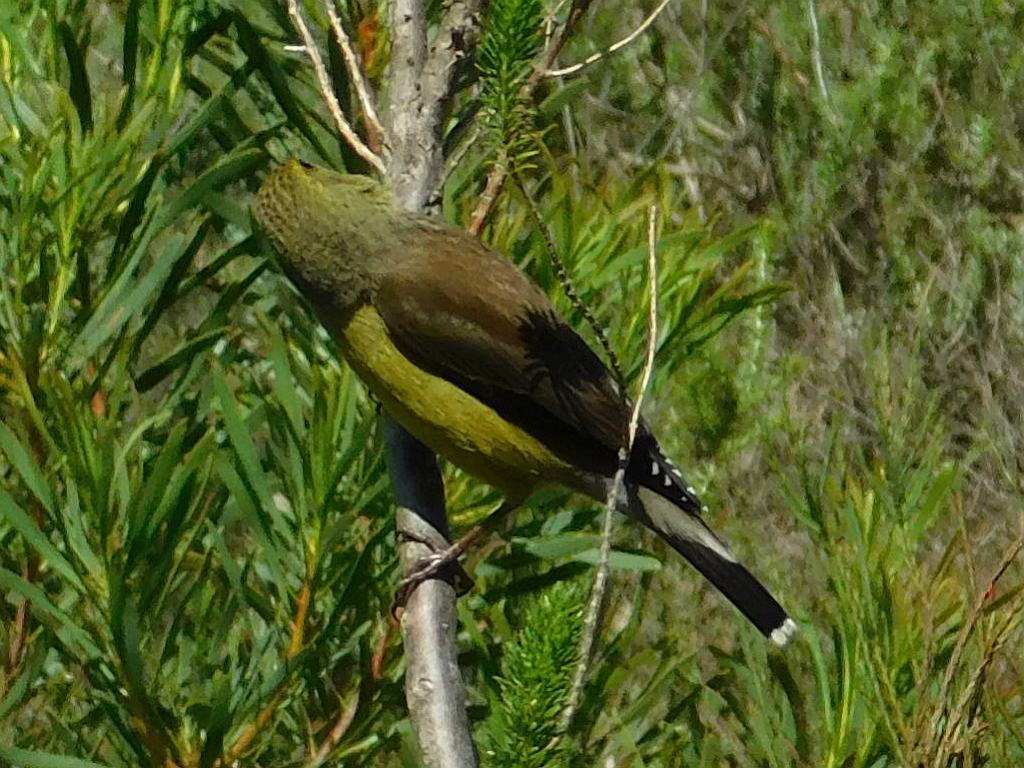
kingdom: Animalia
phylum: Chordata
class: Aves
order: Passeriformes
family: Fringillidae
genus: Crithagra
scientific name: Crithagra totta
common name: Cape siskin
